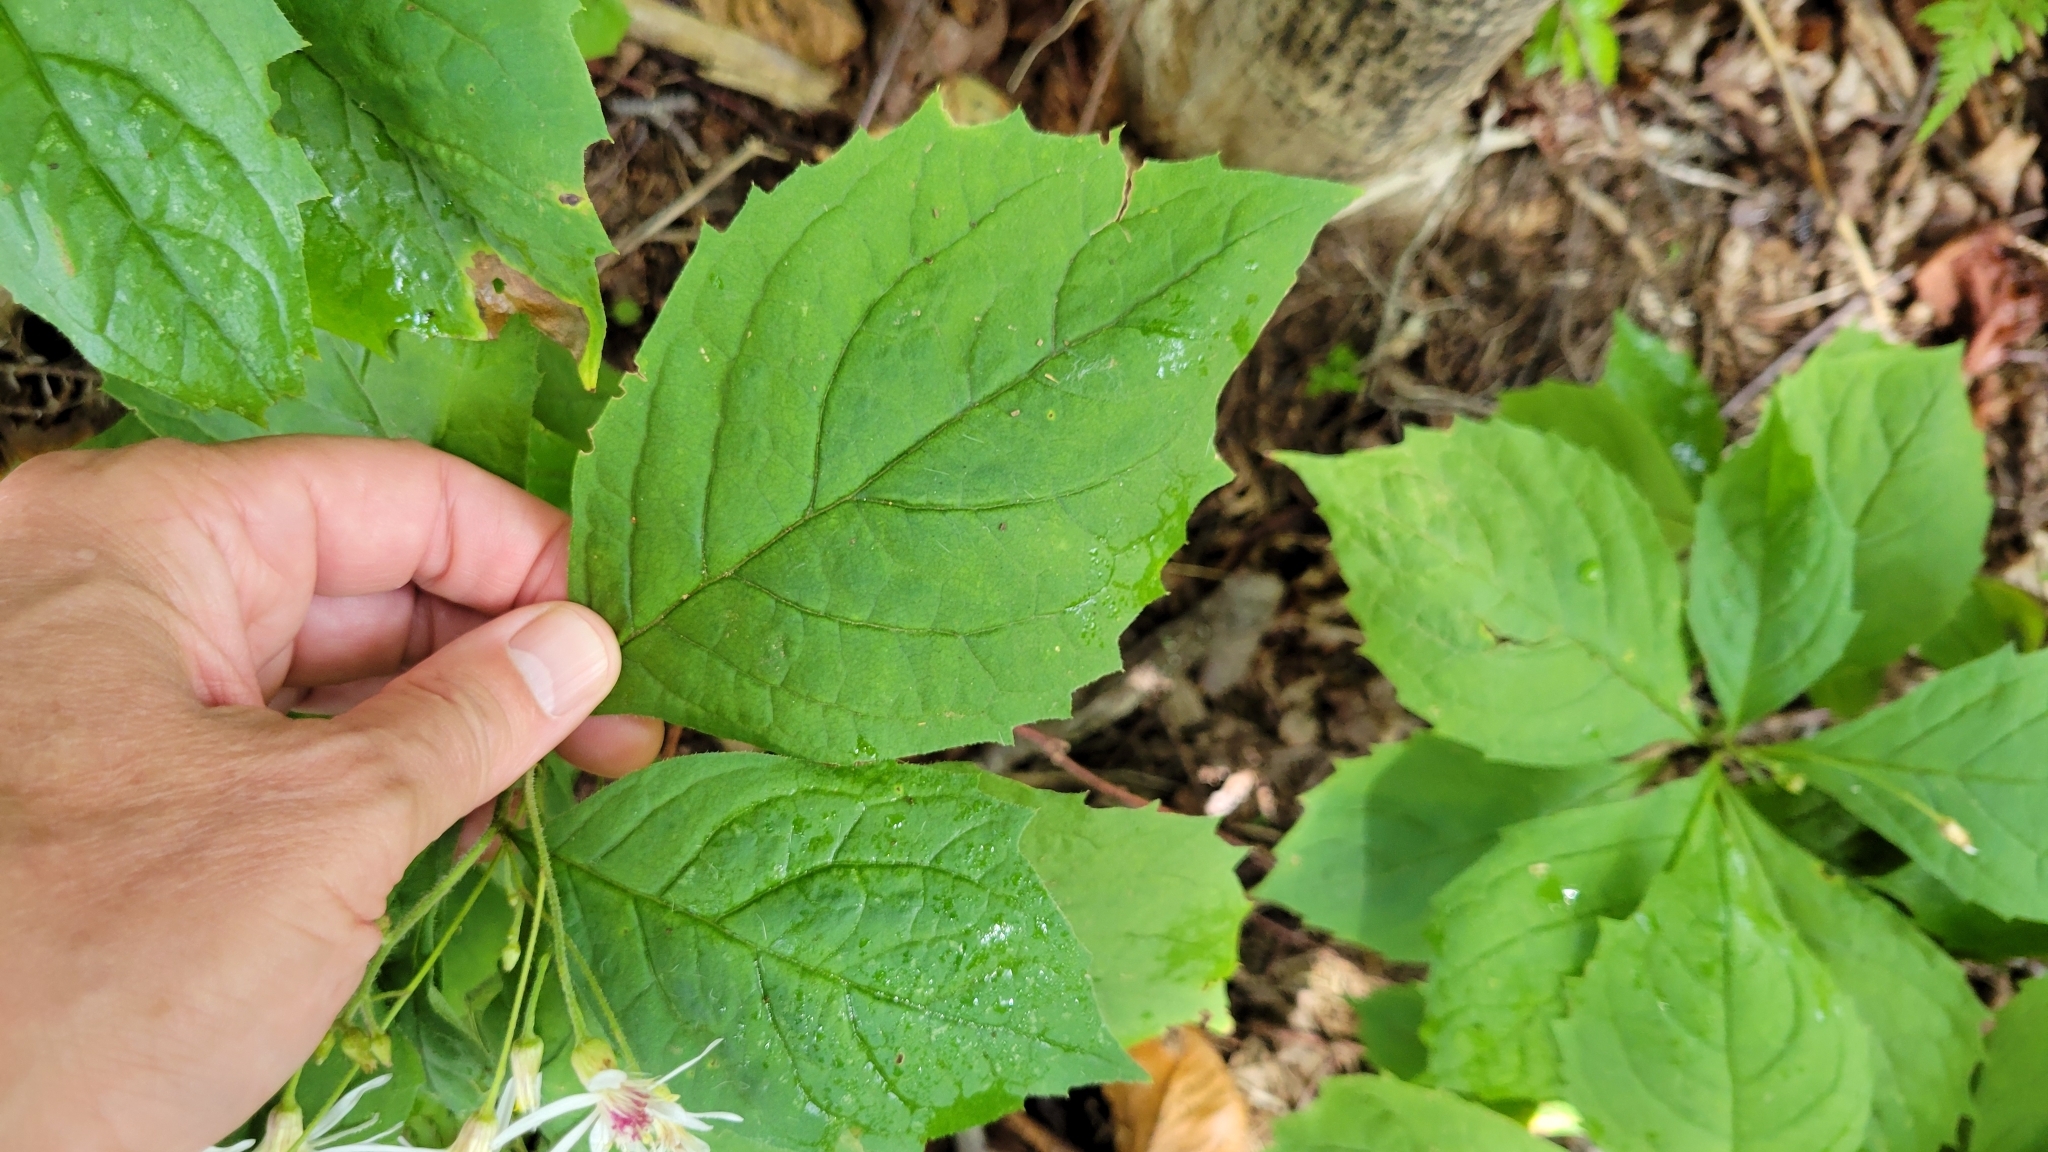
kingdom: Plantae
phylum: Tracheophyta
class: Magnoliopsida
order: Asterales
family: Asteraceae
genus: Oclemena
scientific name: Oclemena acuminata
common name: Mountain aster
